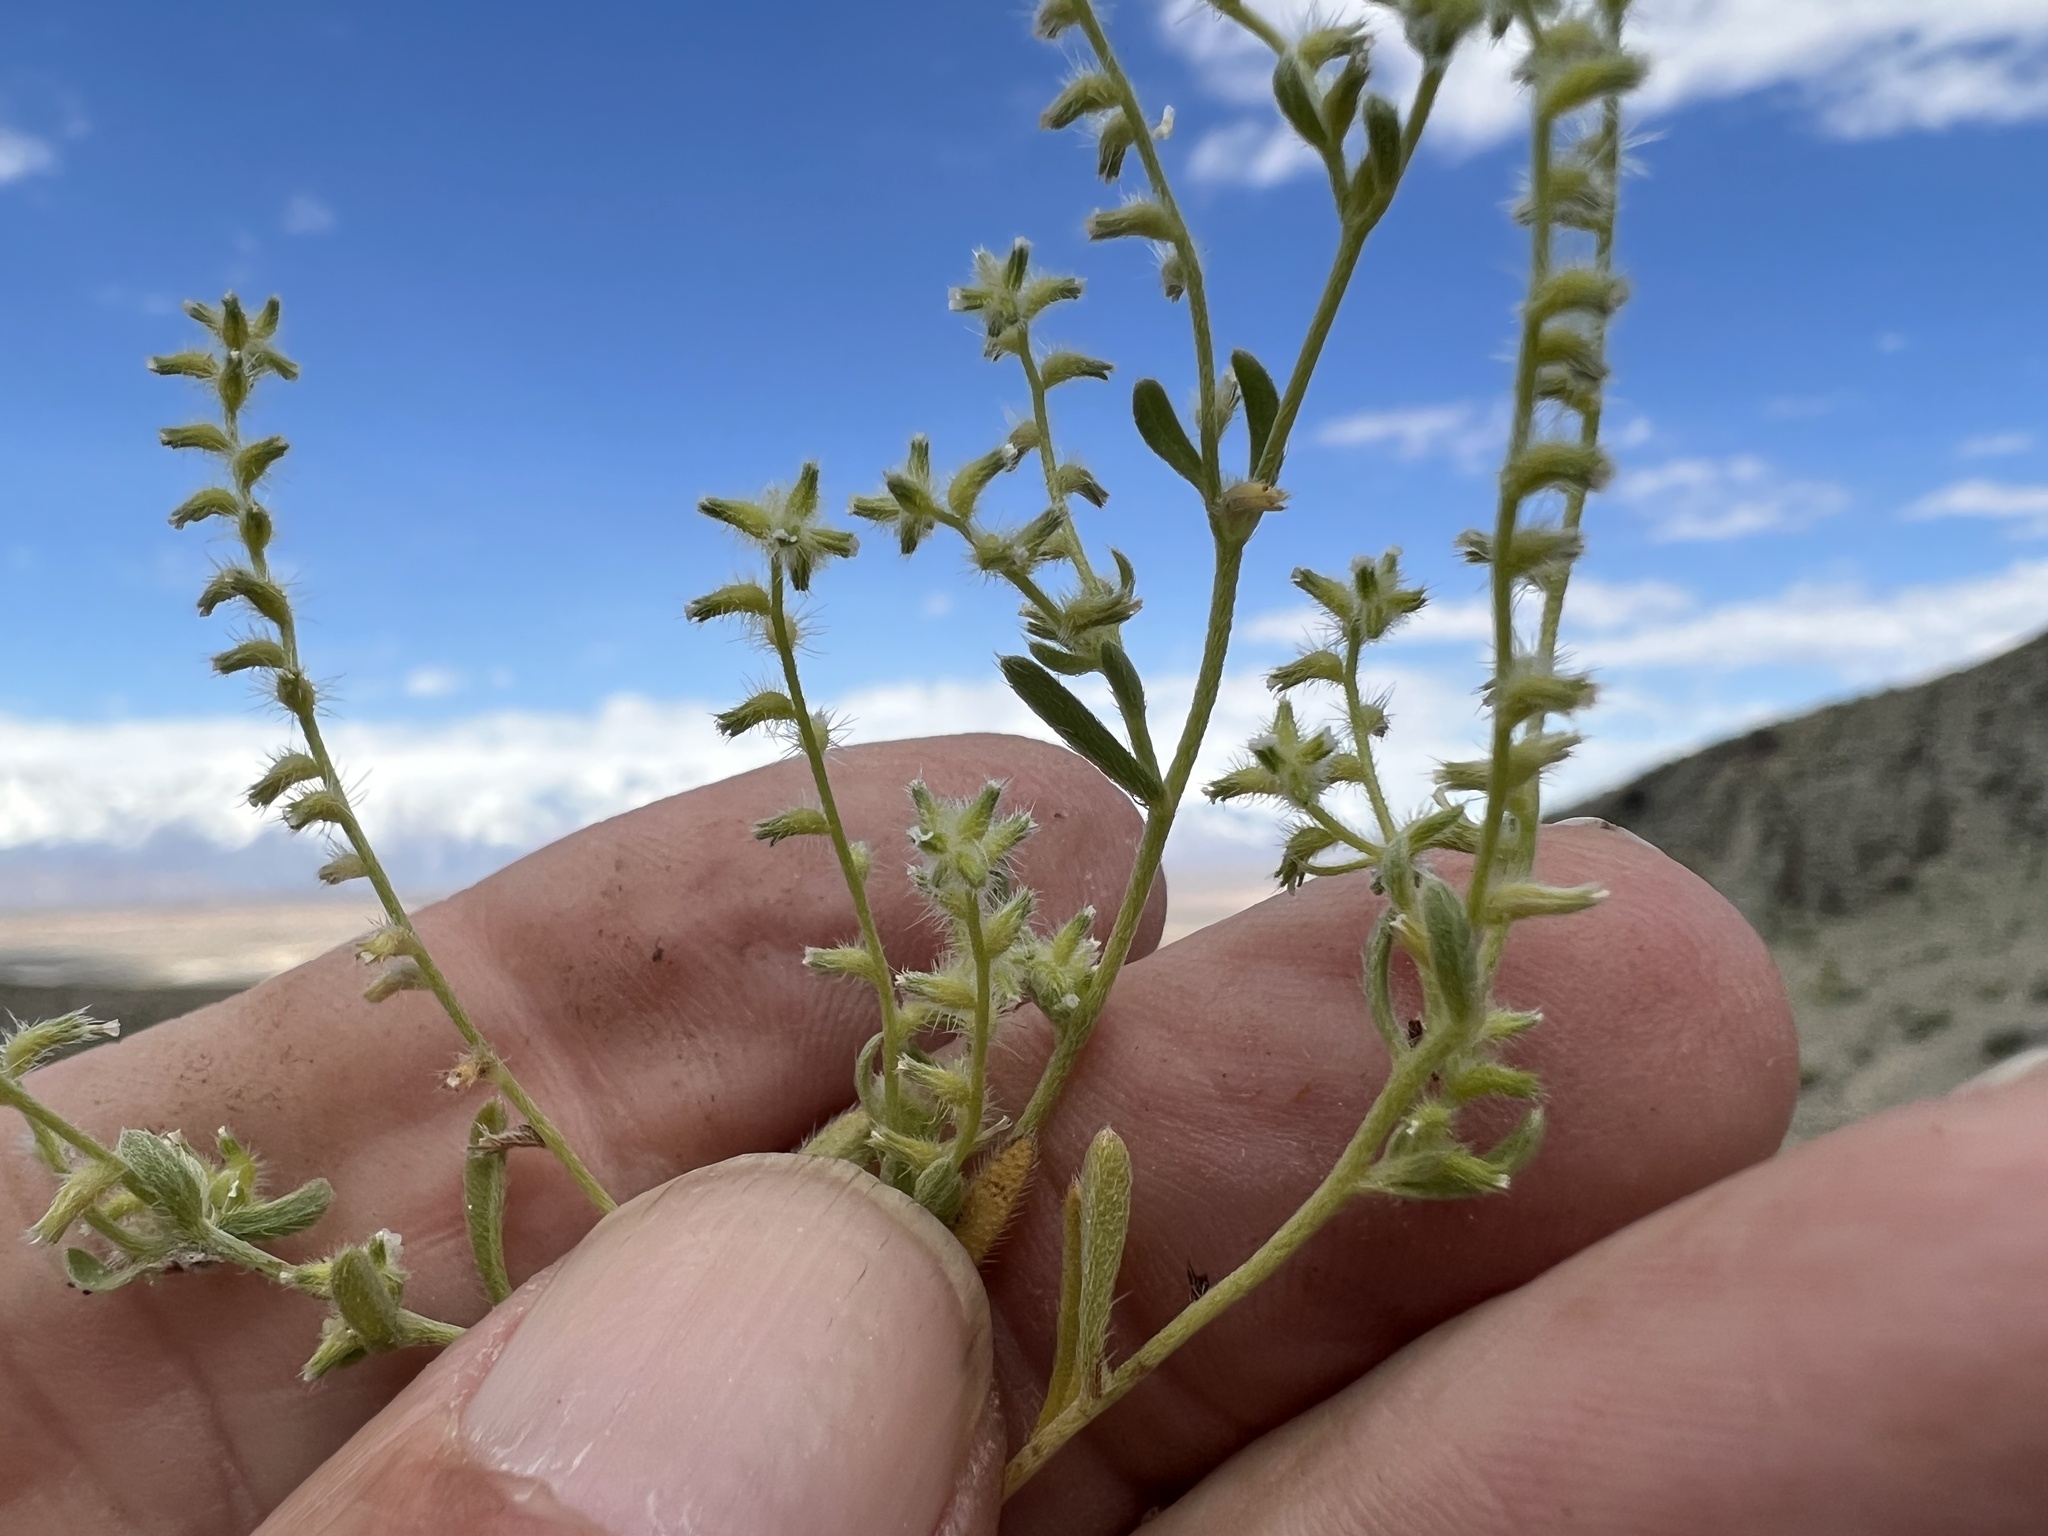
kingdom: Plantae
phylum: Tracheophyta
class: Magnoliopsida
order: Boraginales
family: Boraginaceae
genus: Cryptantha
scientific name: Cryptantha recurvata
